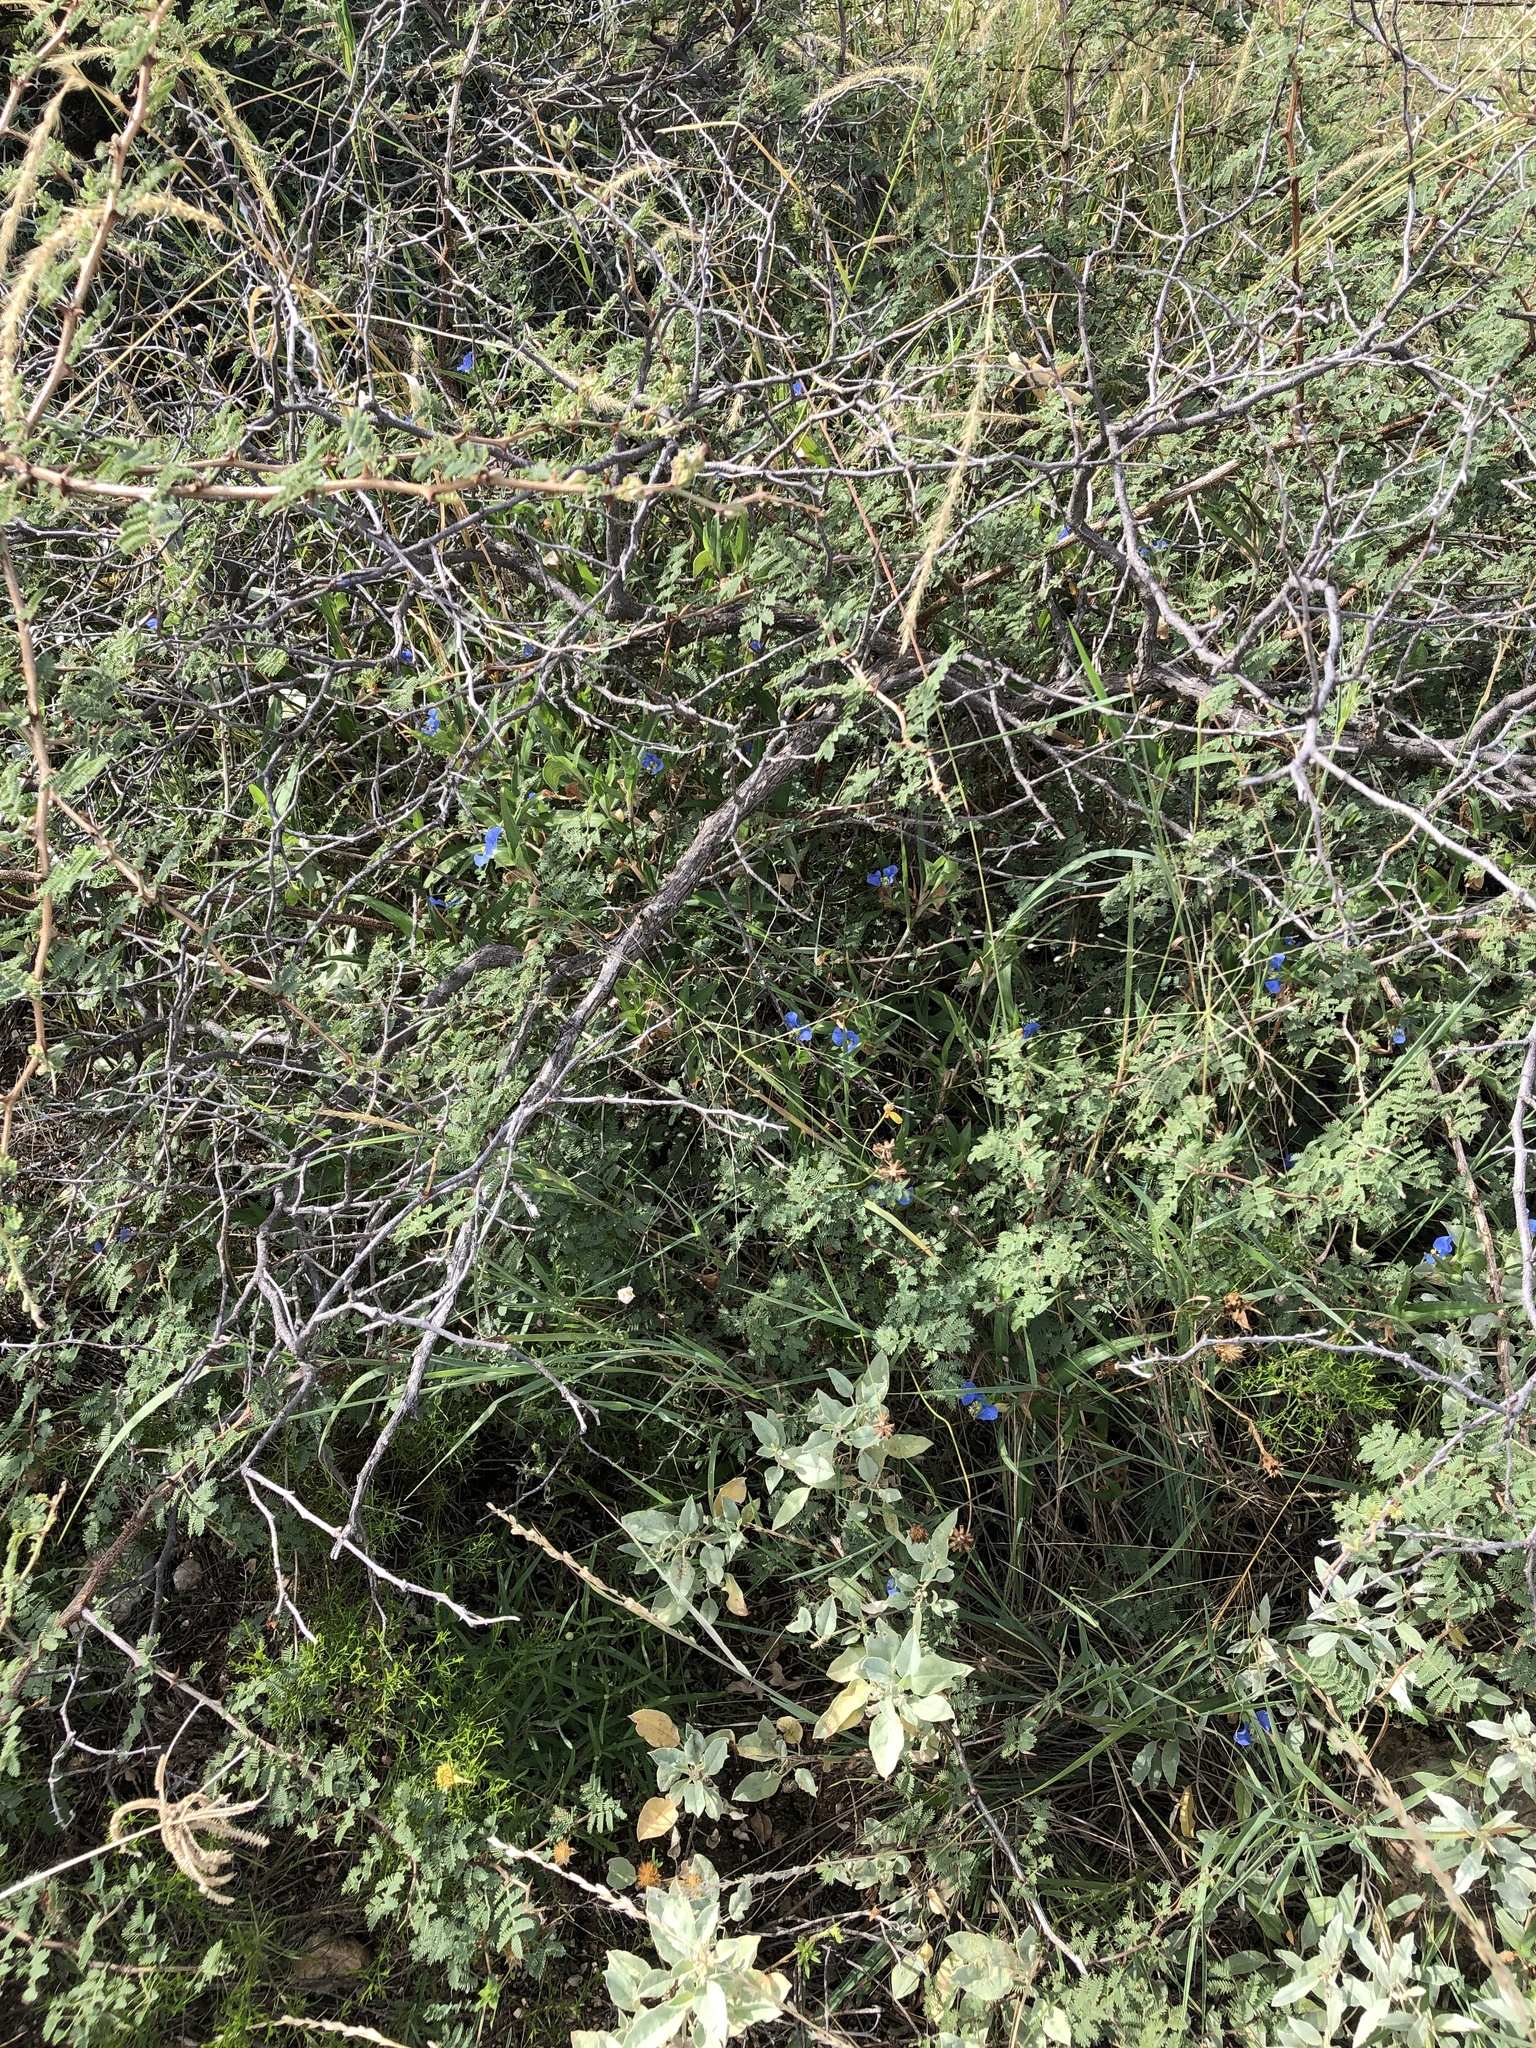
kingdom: Plantae
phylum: Tracheophyta
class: Liliopsida
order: Commelinales
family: Commelinaceae
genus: Commelina
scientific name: Commelina erecta
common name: Blousel blommetjie
